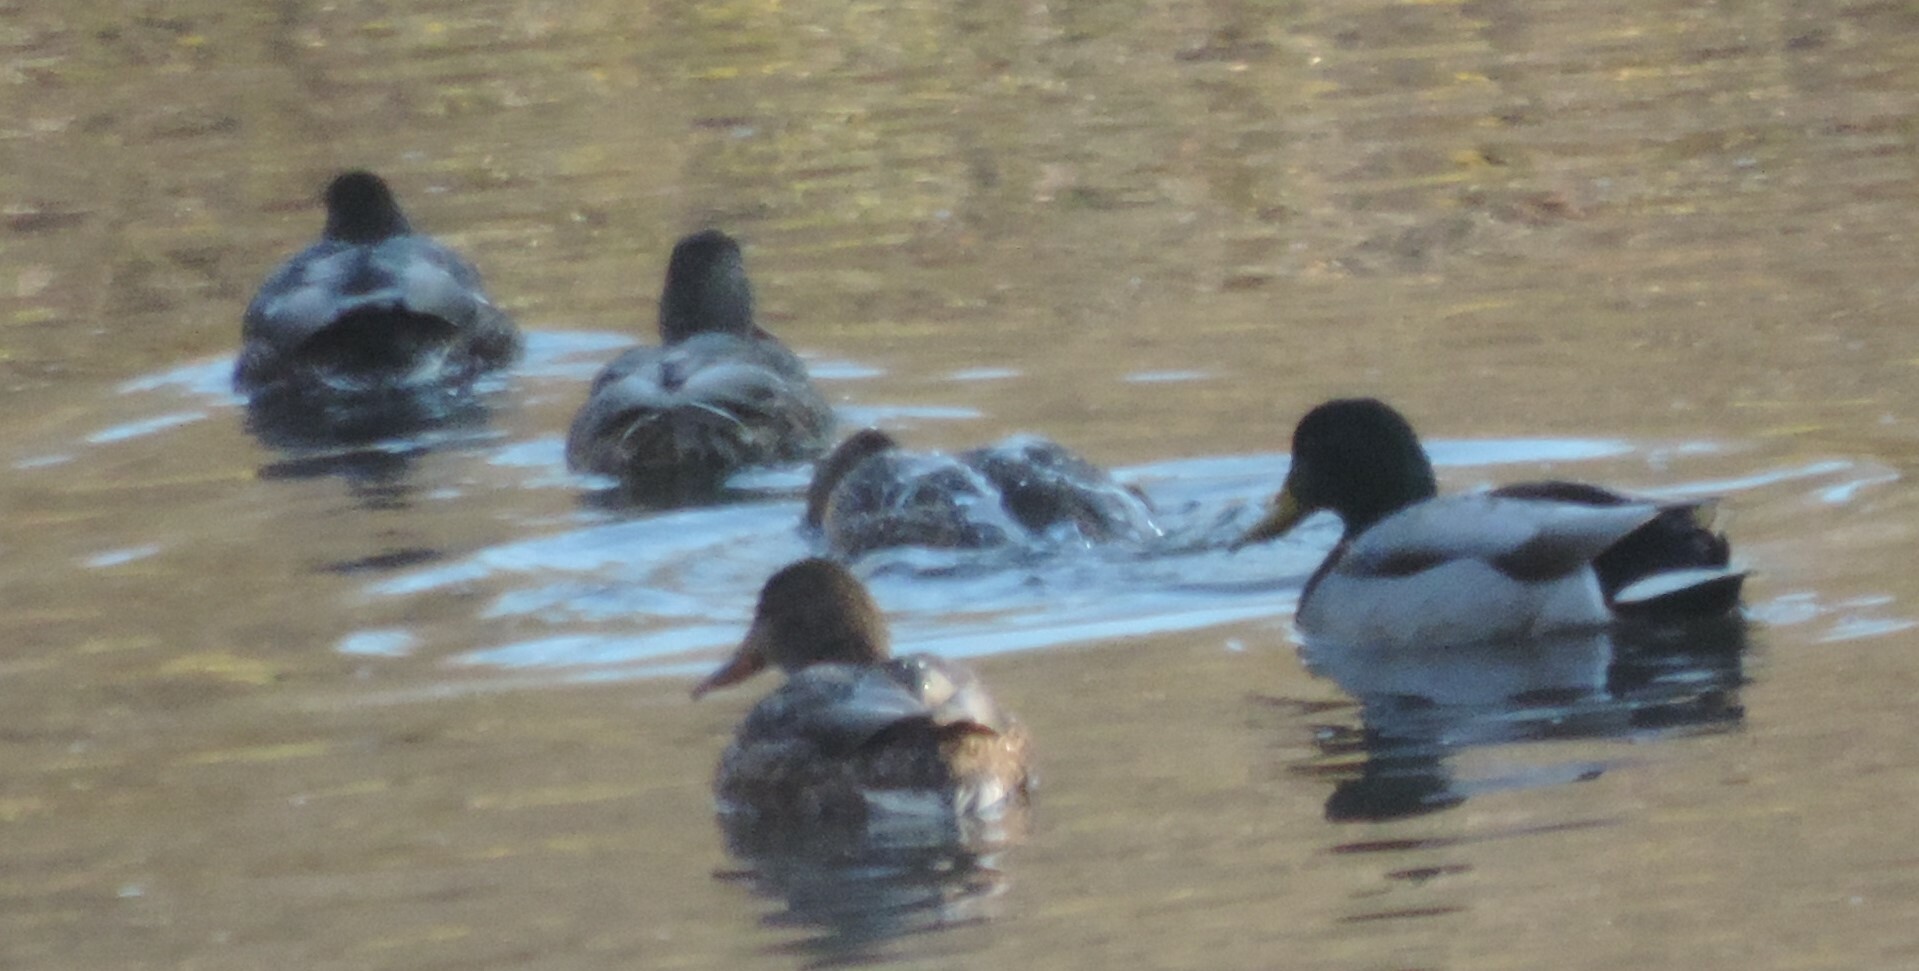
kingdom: Animalia
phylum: Chordata
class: Aves
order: Anseriformes
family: Anatidae
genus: Anas
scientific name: Anas platyrhynchos
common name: Mallard
